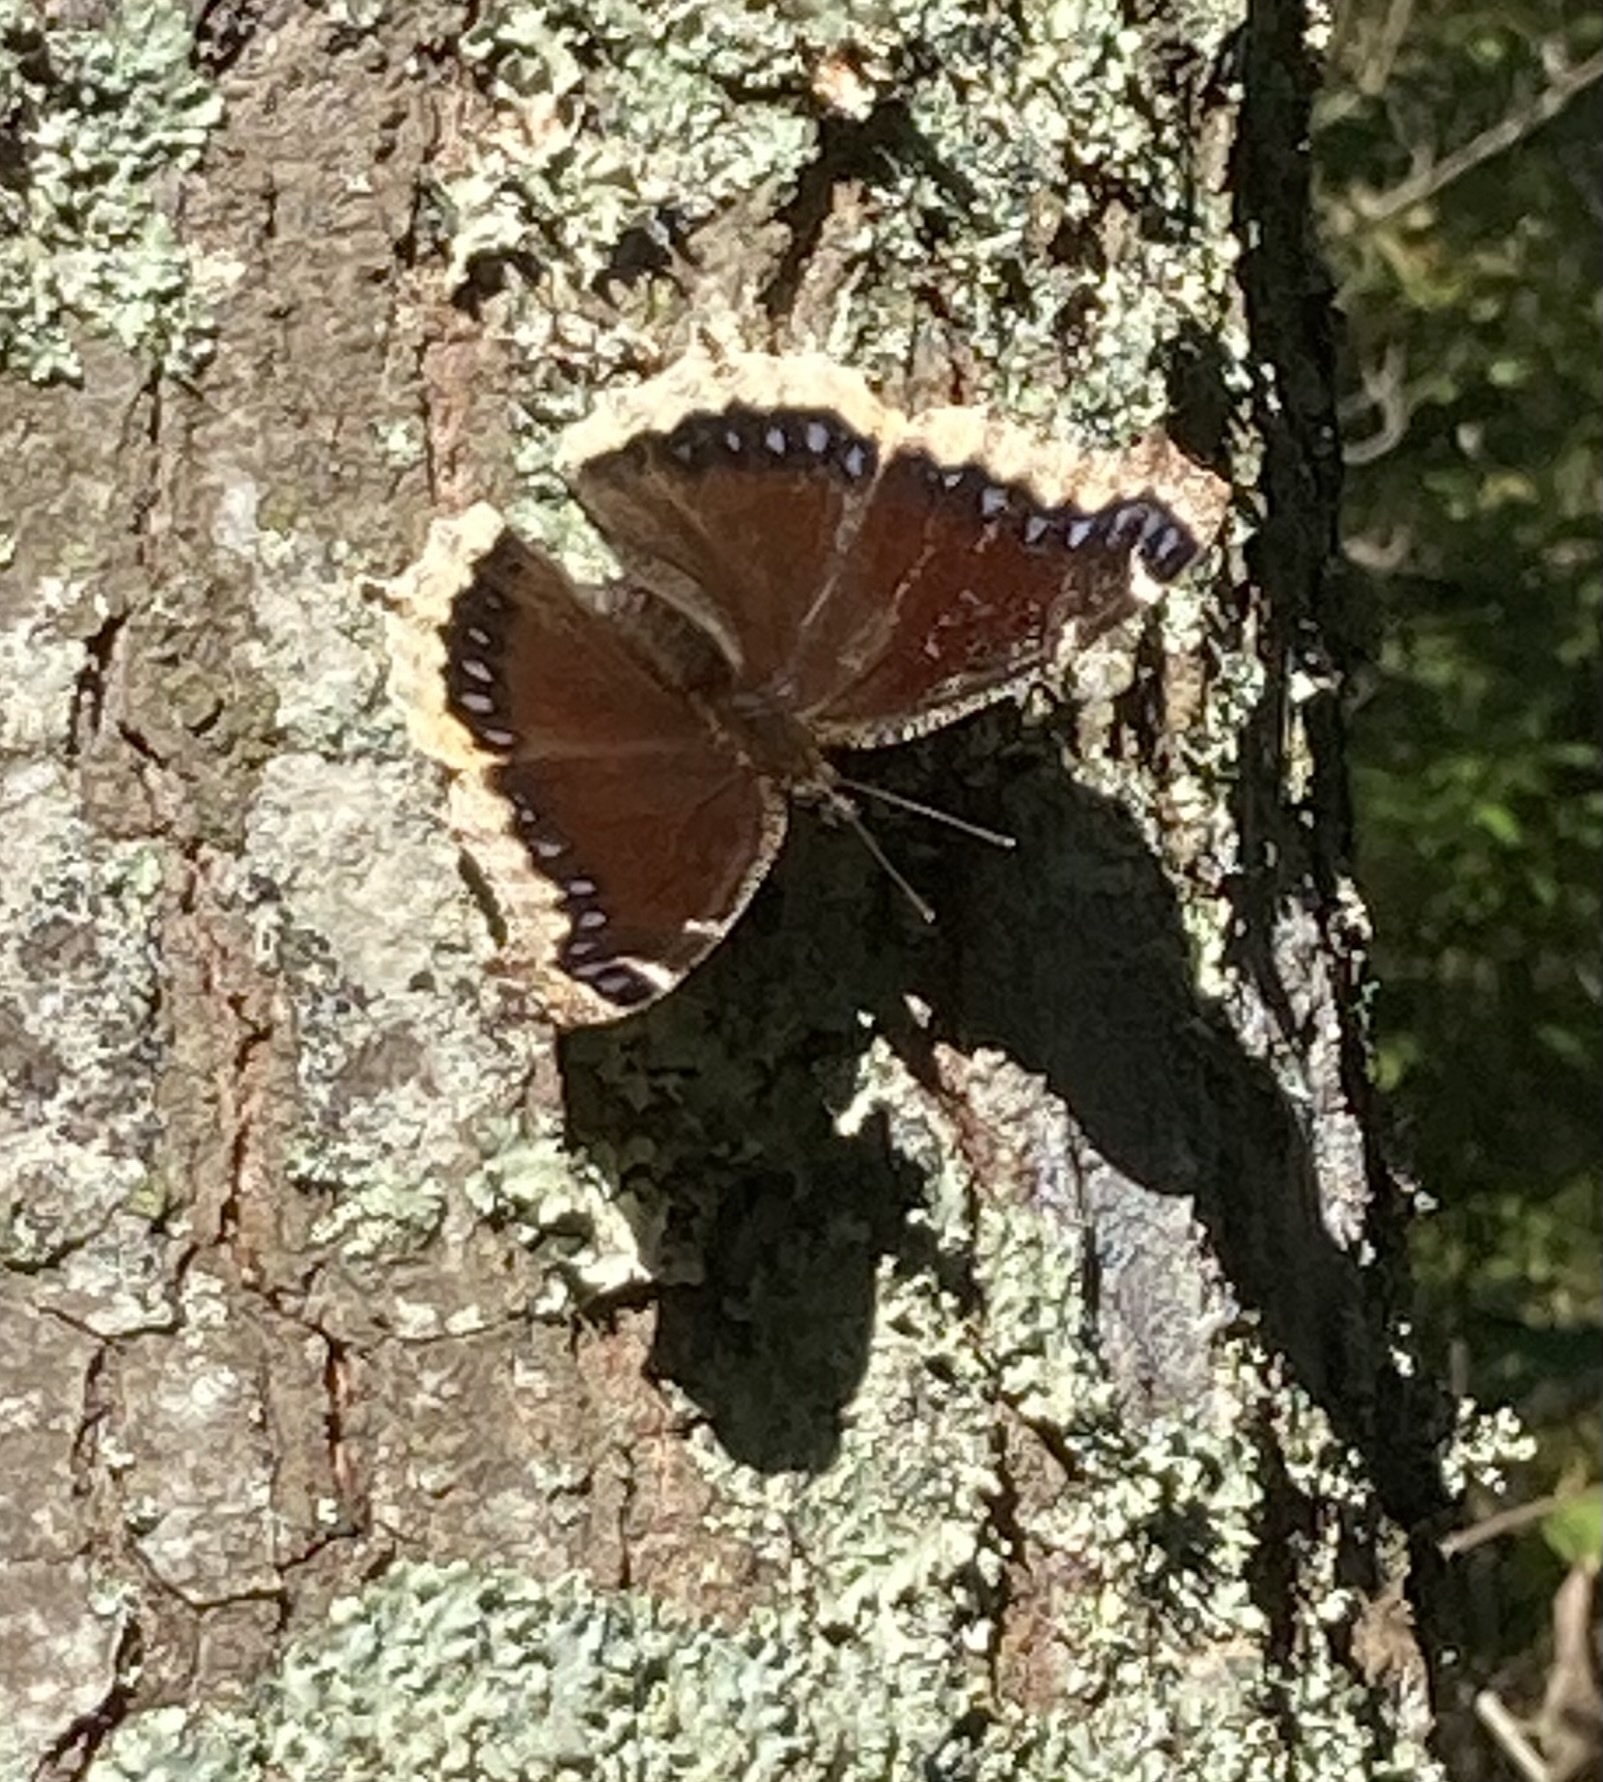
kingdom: Animalia
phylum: Arthropoda
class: Insecta
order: Lepidoptera
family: Nymphalidae
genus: Nymphalis
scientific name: Nymphalis antiopa
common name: Camberwell beauty
